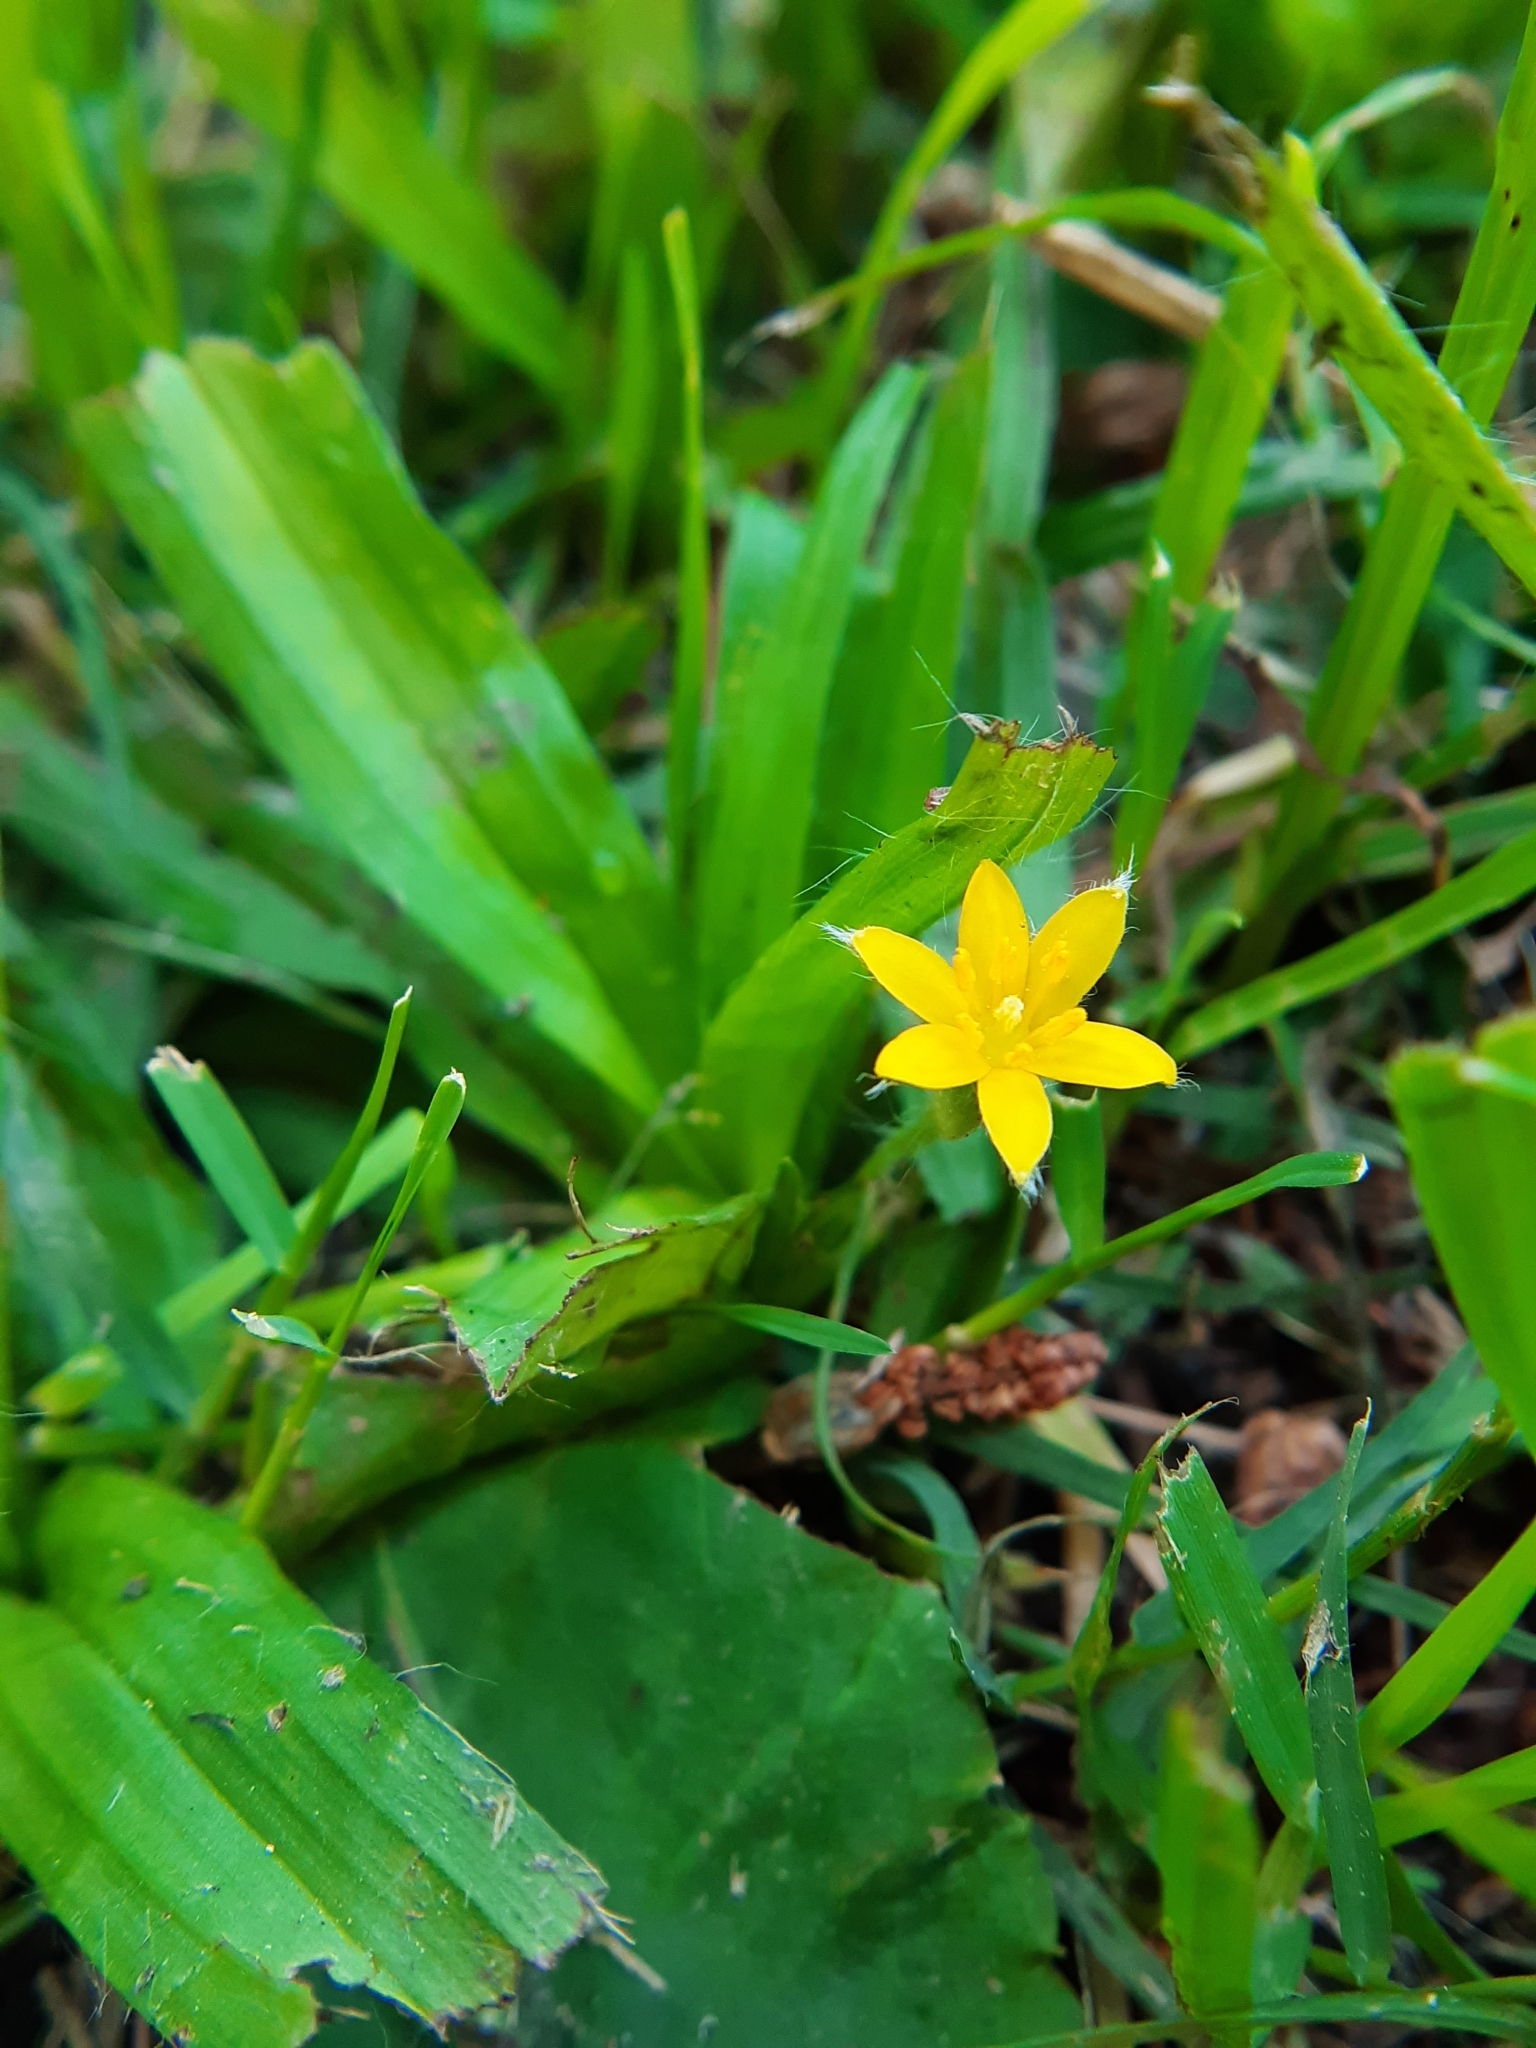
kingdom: Plantae
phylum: Tracheophyta
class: Liliopsida
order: Asparagales
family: Hypoxidaceae
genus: Hypoxis
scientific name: Hypoxis decumbens
